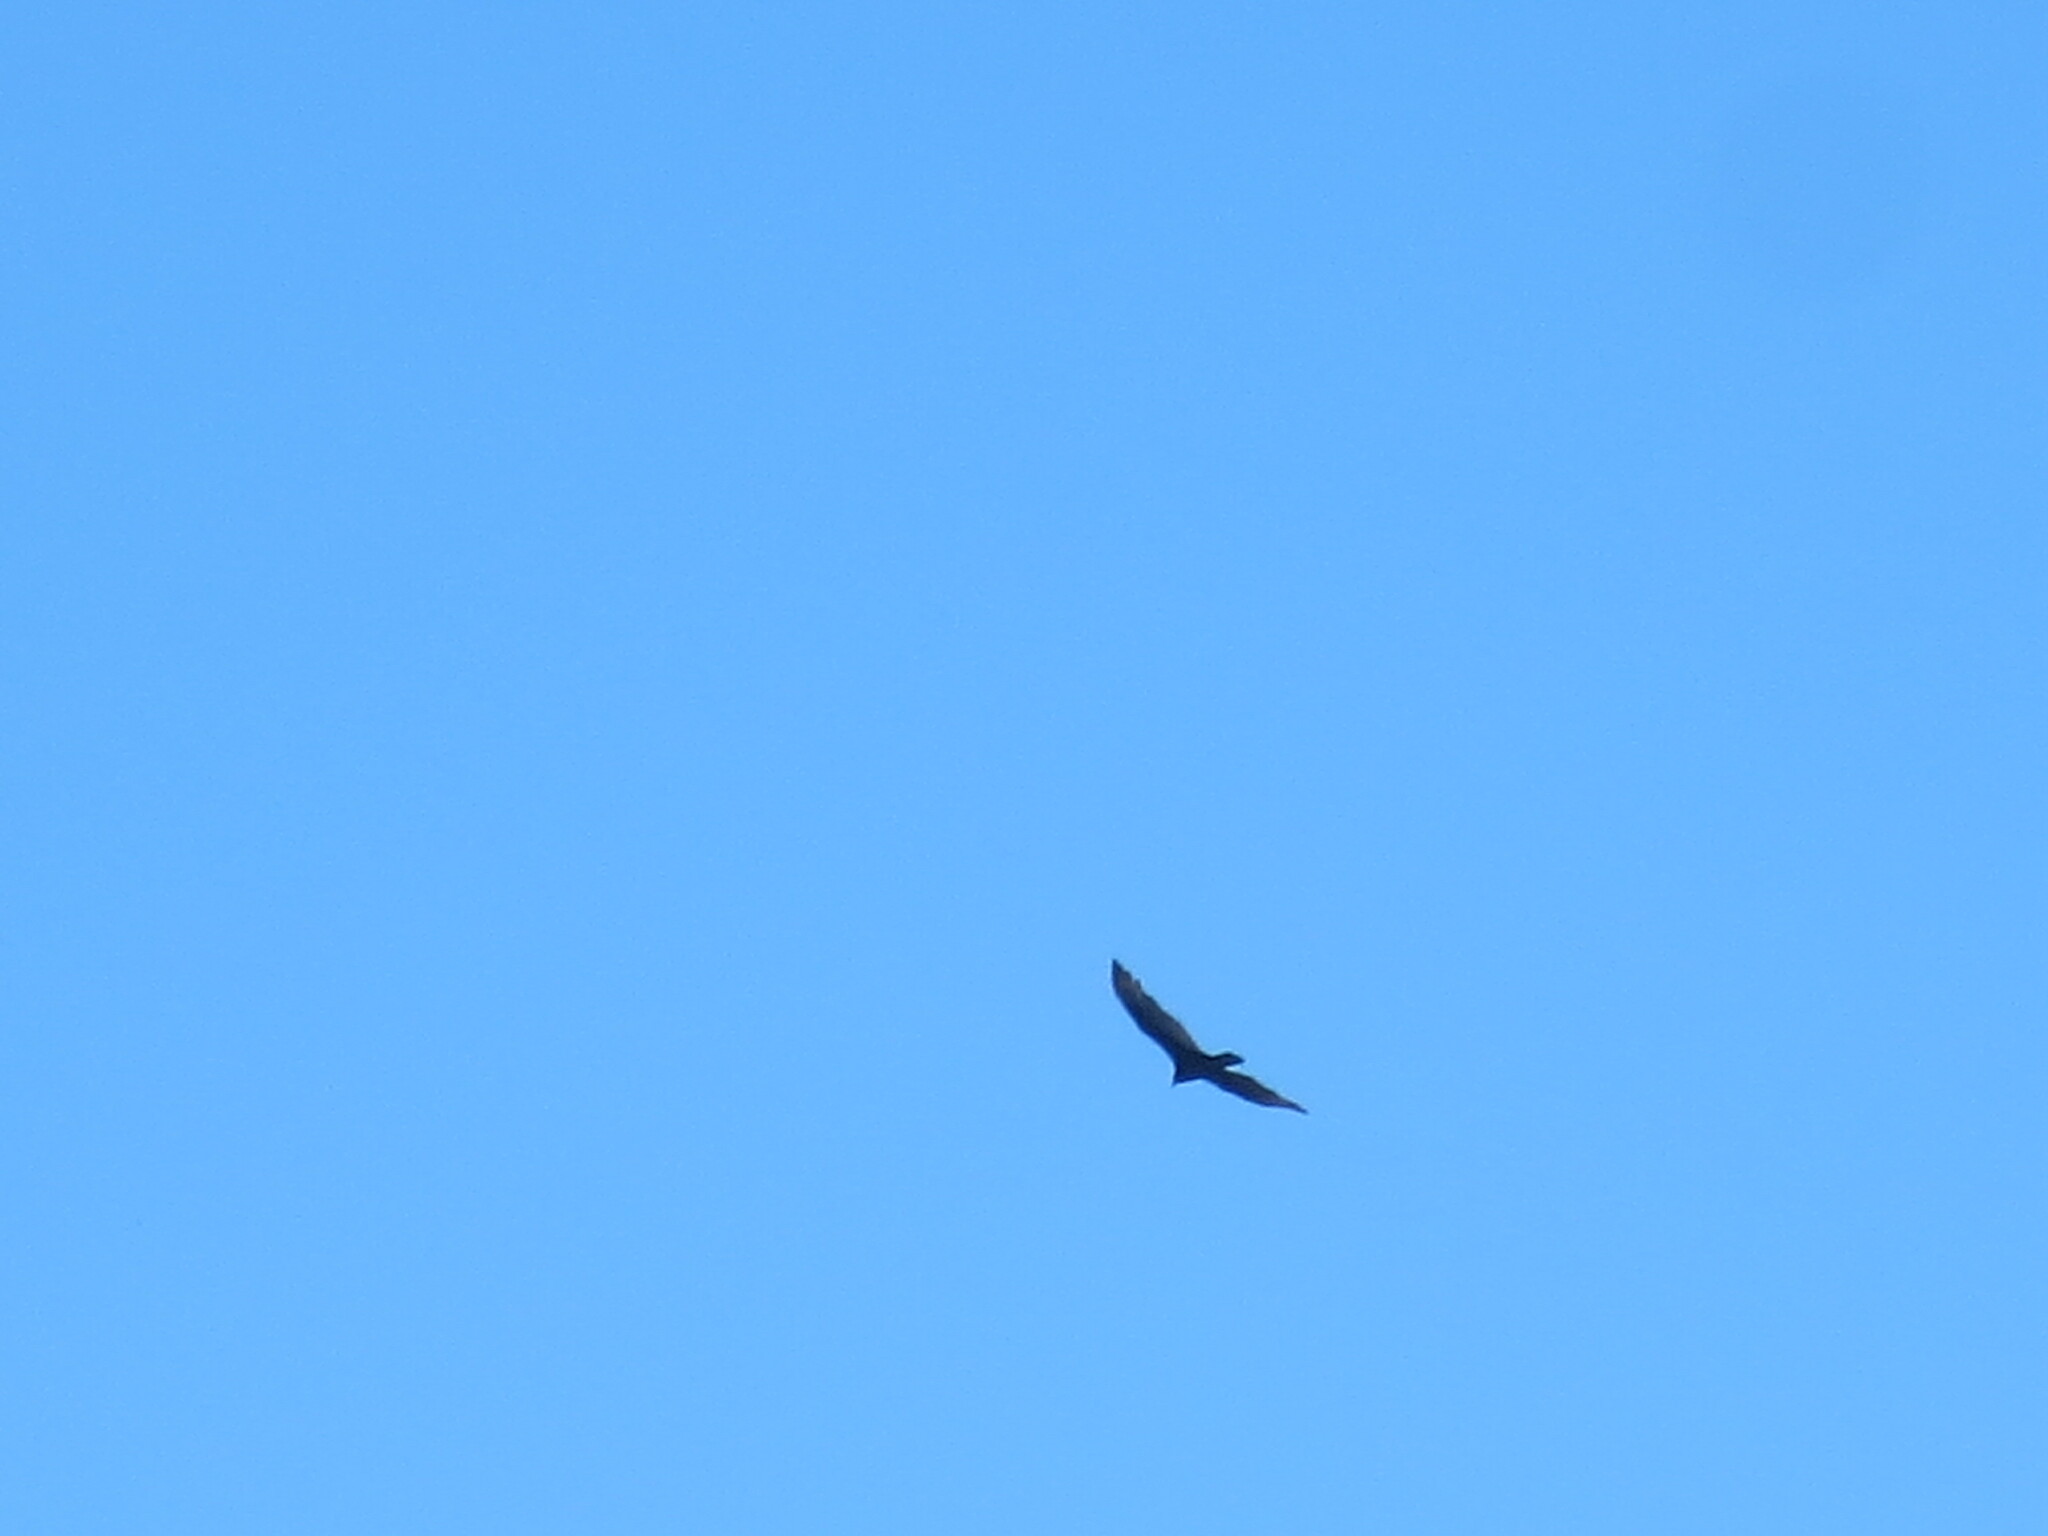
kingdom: Animalia
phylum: Chordata
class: Aves
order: Accipitriformes
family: Cathartidae
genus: Cathartes
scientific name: Cathartes aura
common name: Turkey vulture
